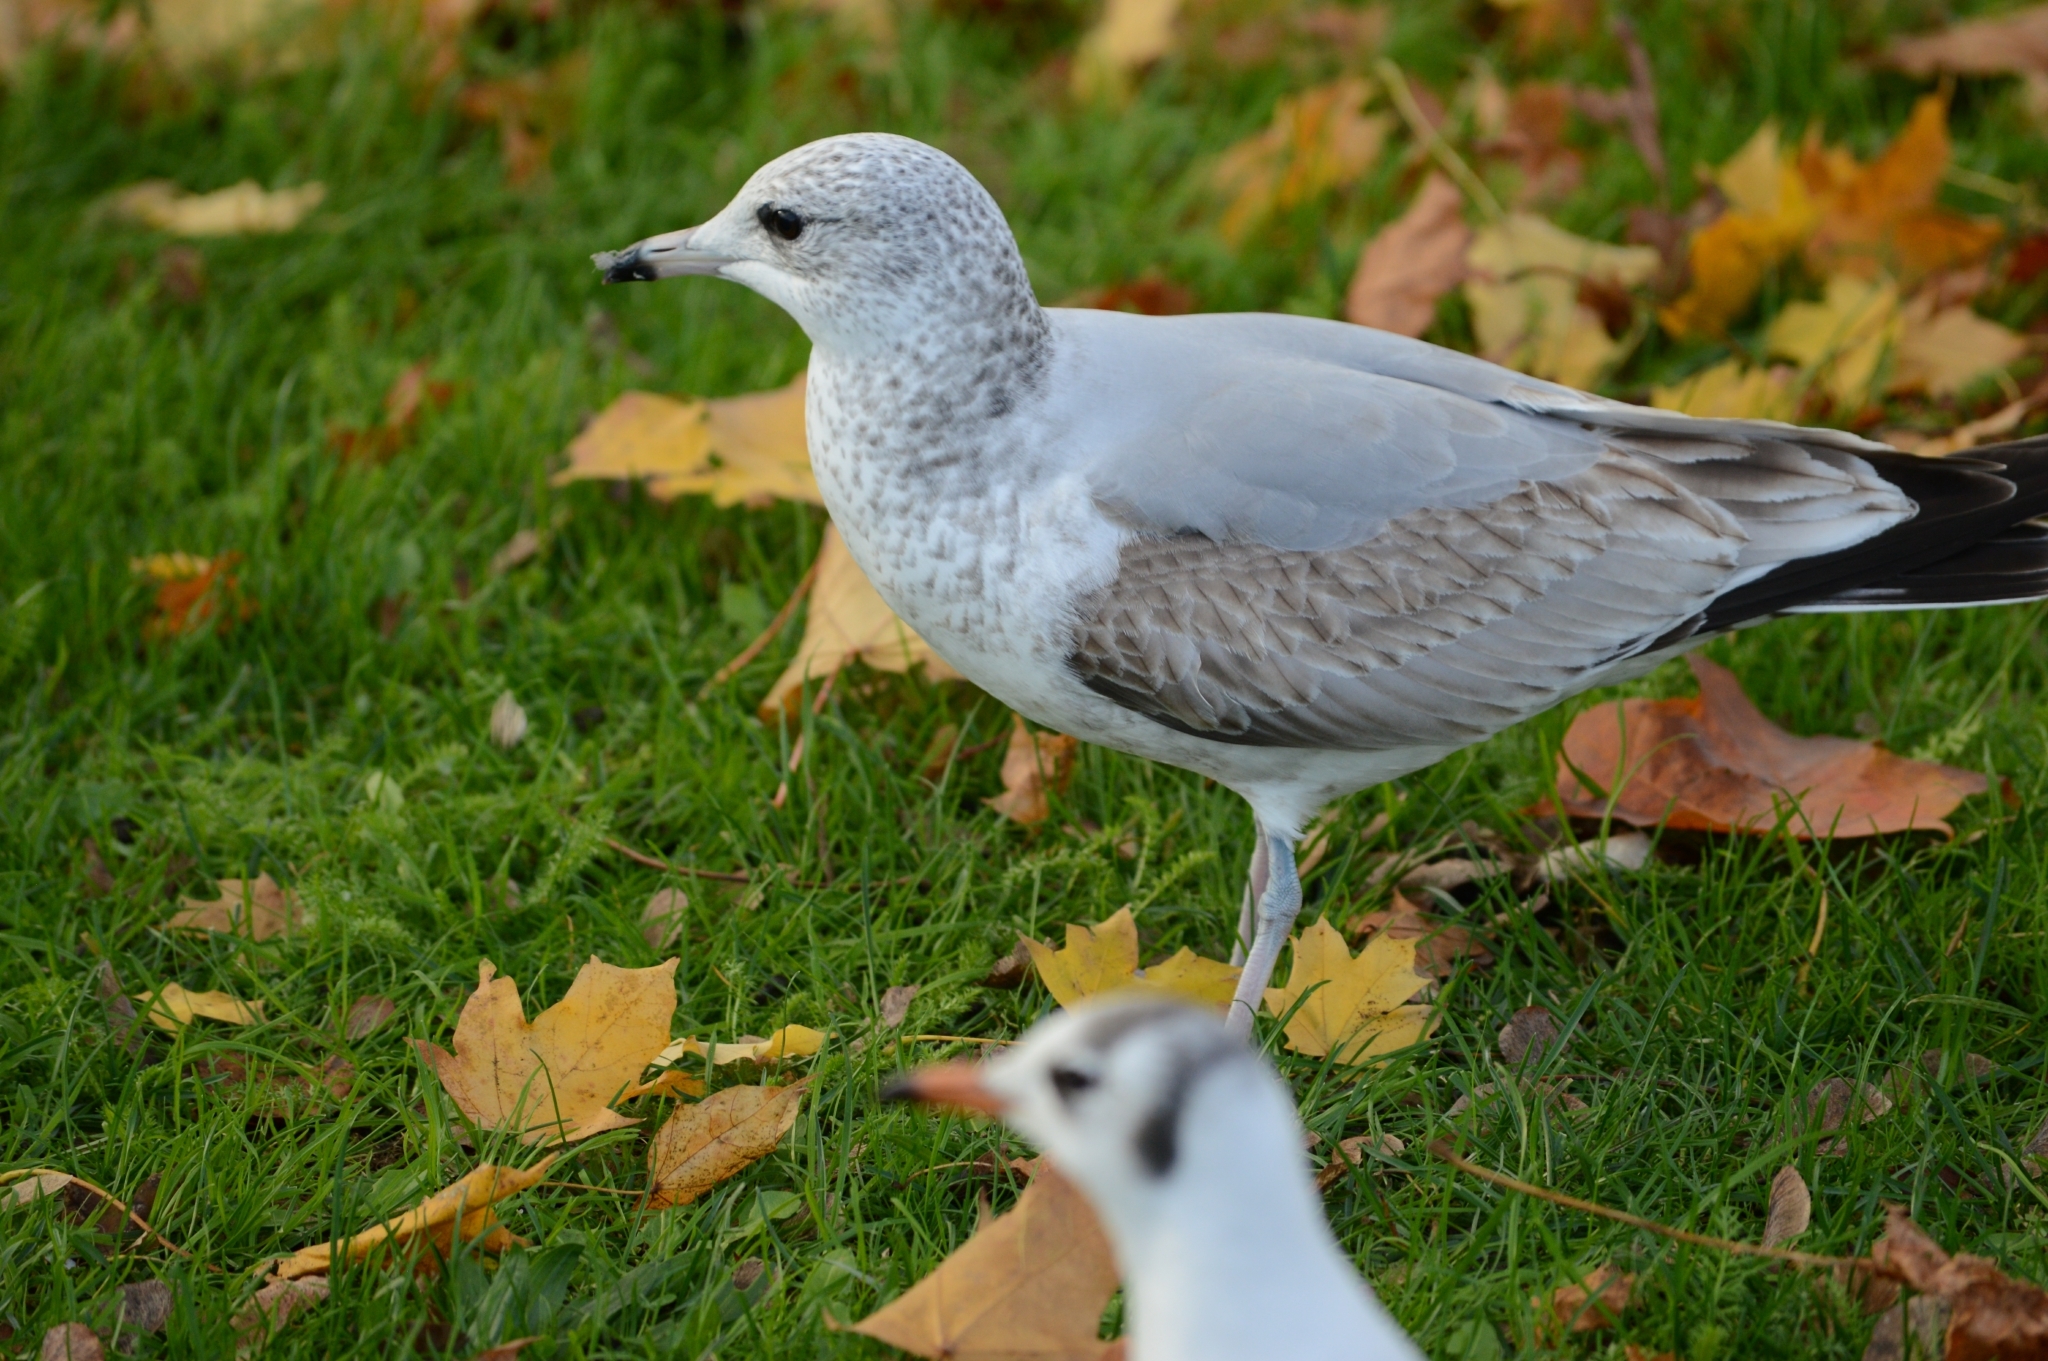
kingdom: Animalia
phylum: Chordata
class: Aves
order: Charadriiformes
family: Laridae
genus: Larus
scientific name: Larus canus
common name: Mew gull
